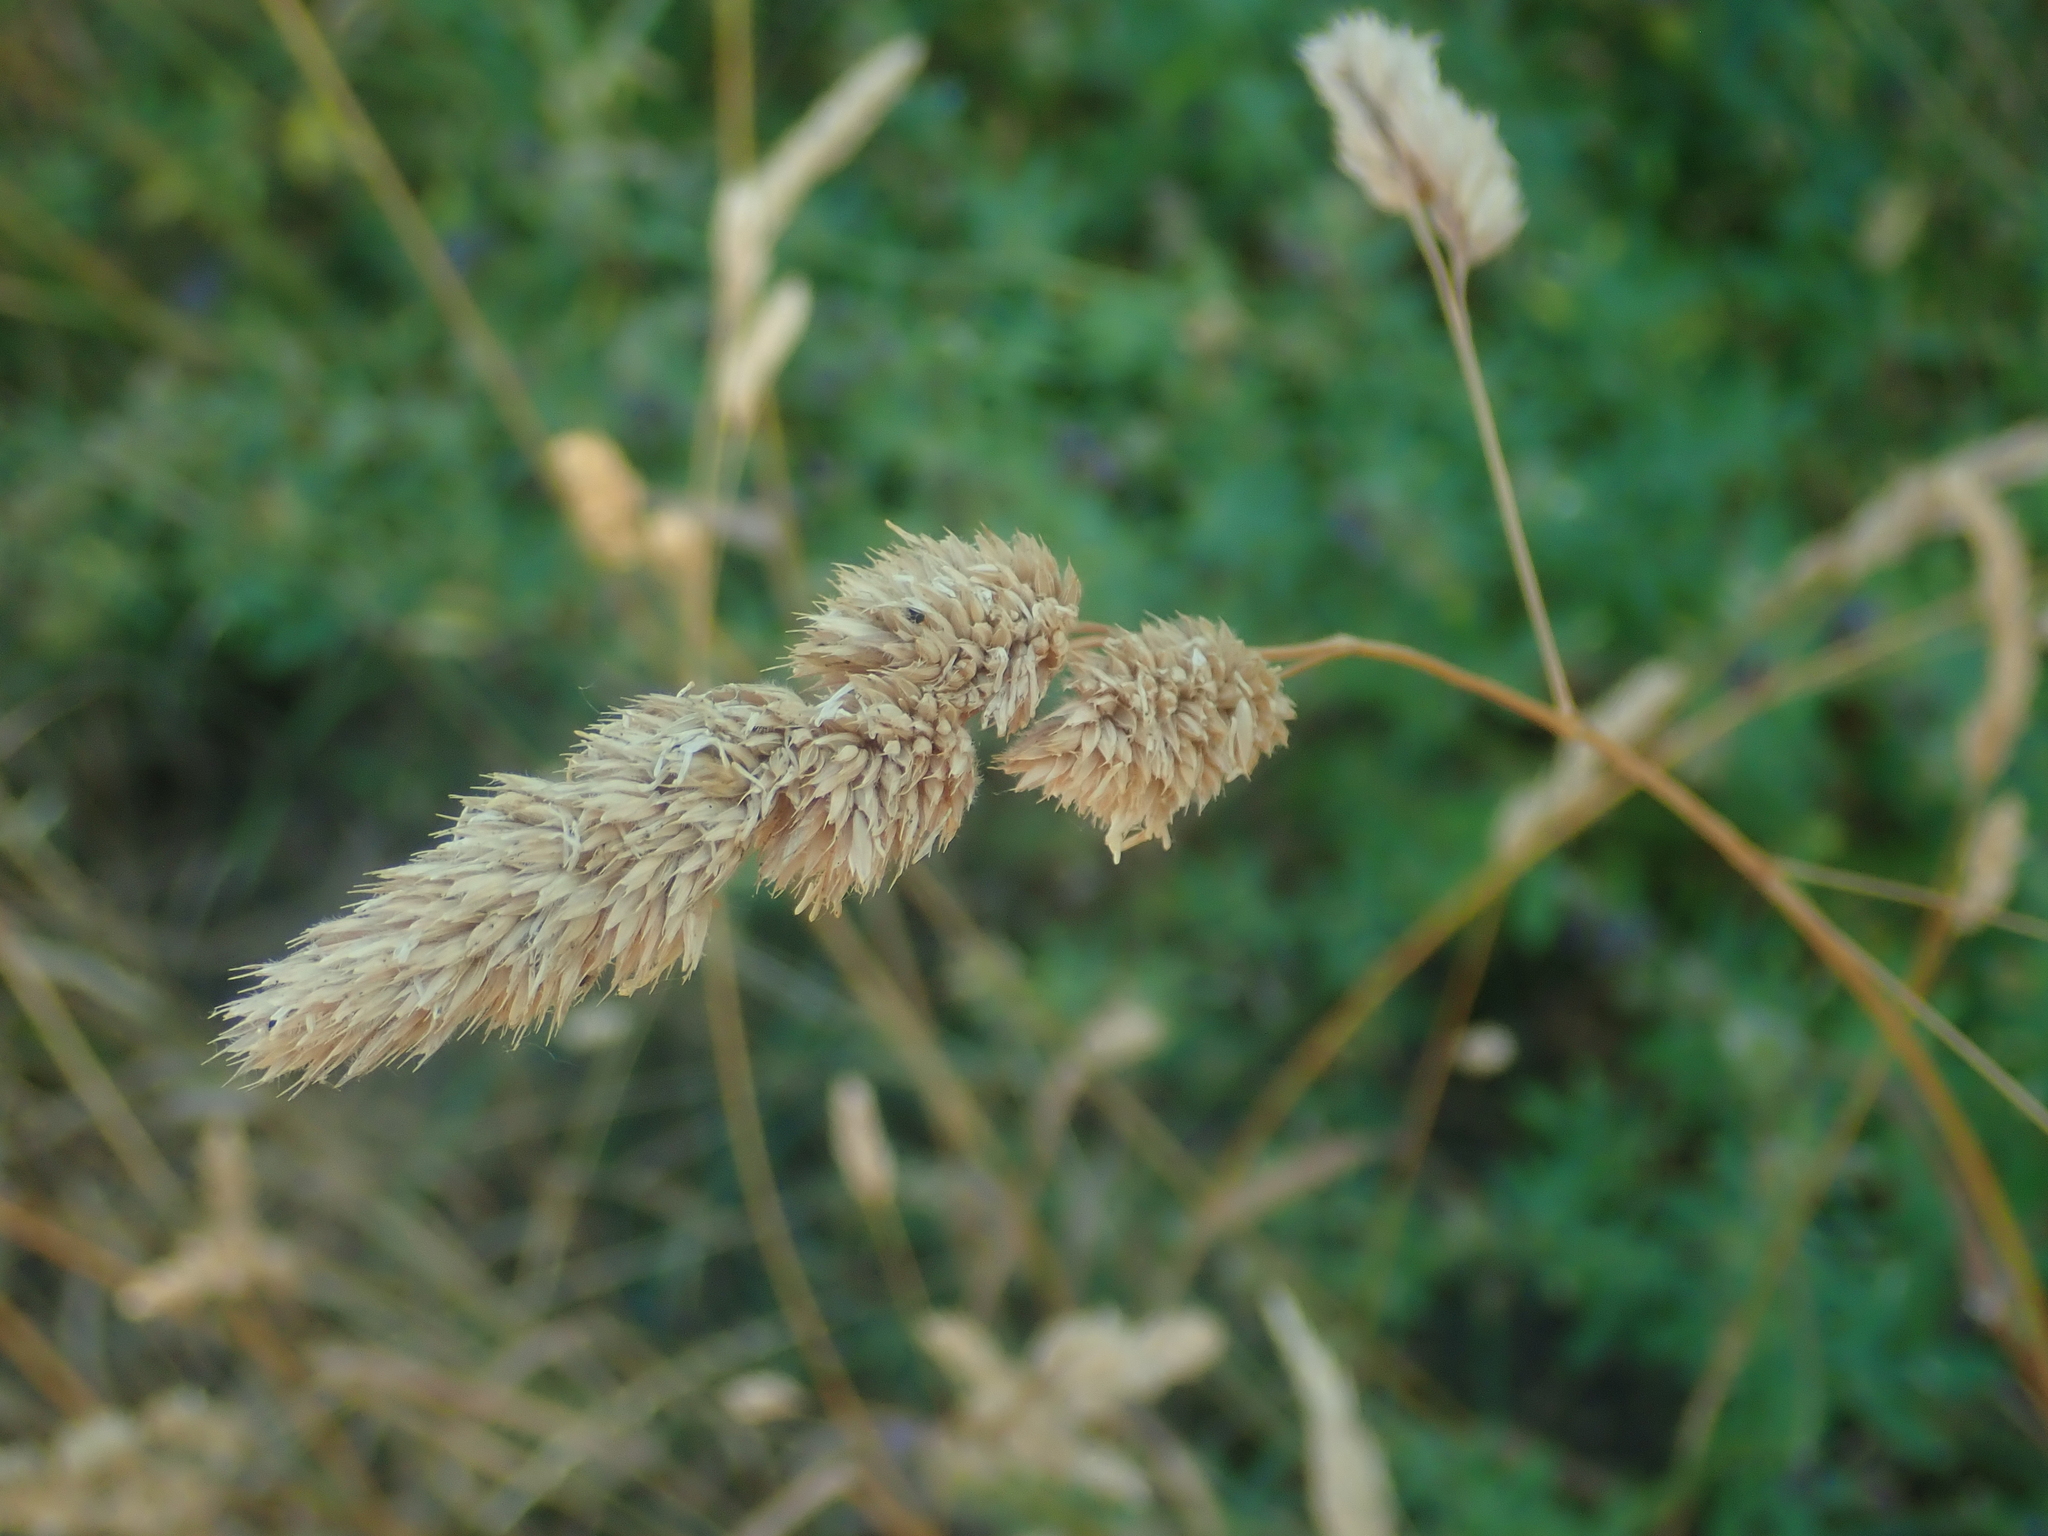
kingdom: Plantae
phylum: Tracheophyta
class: Liliopsida
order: Poales
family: Poaceae
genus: Dactylis
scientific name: Dactylis glomerata
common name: Orchardgrass
